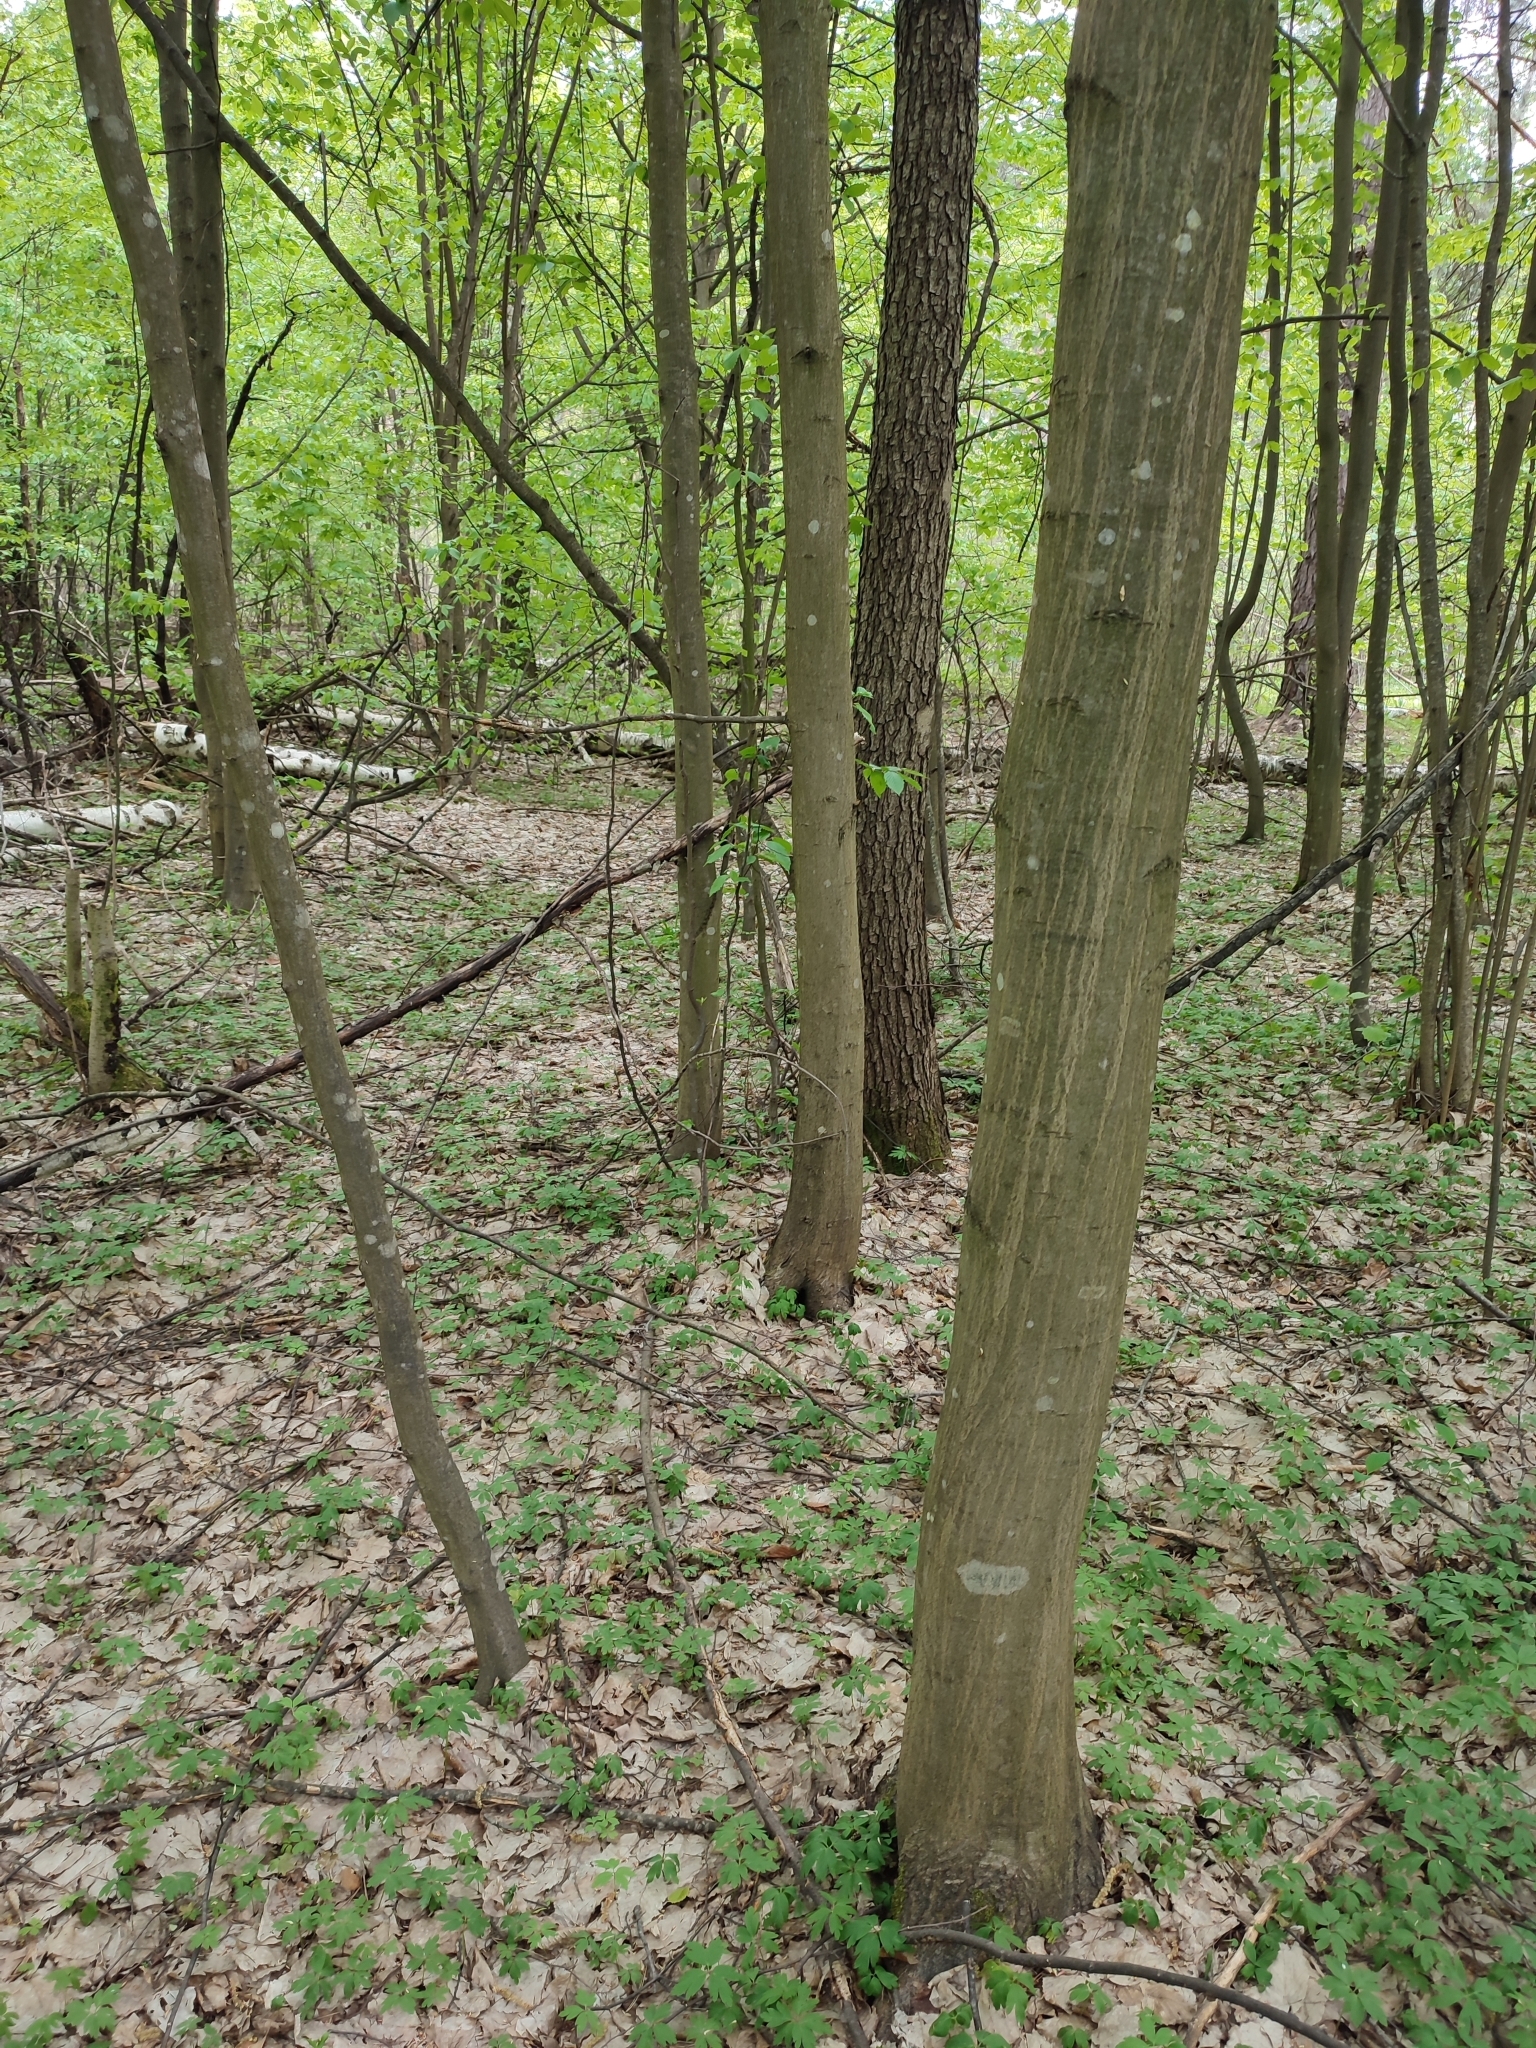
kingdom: Plantae
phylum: Tracheophyta
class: Magnoliopsida
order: Fagales
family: Betulaceae
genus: Carpinus
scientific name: Carpinus betulus
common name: Hornbeam
